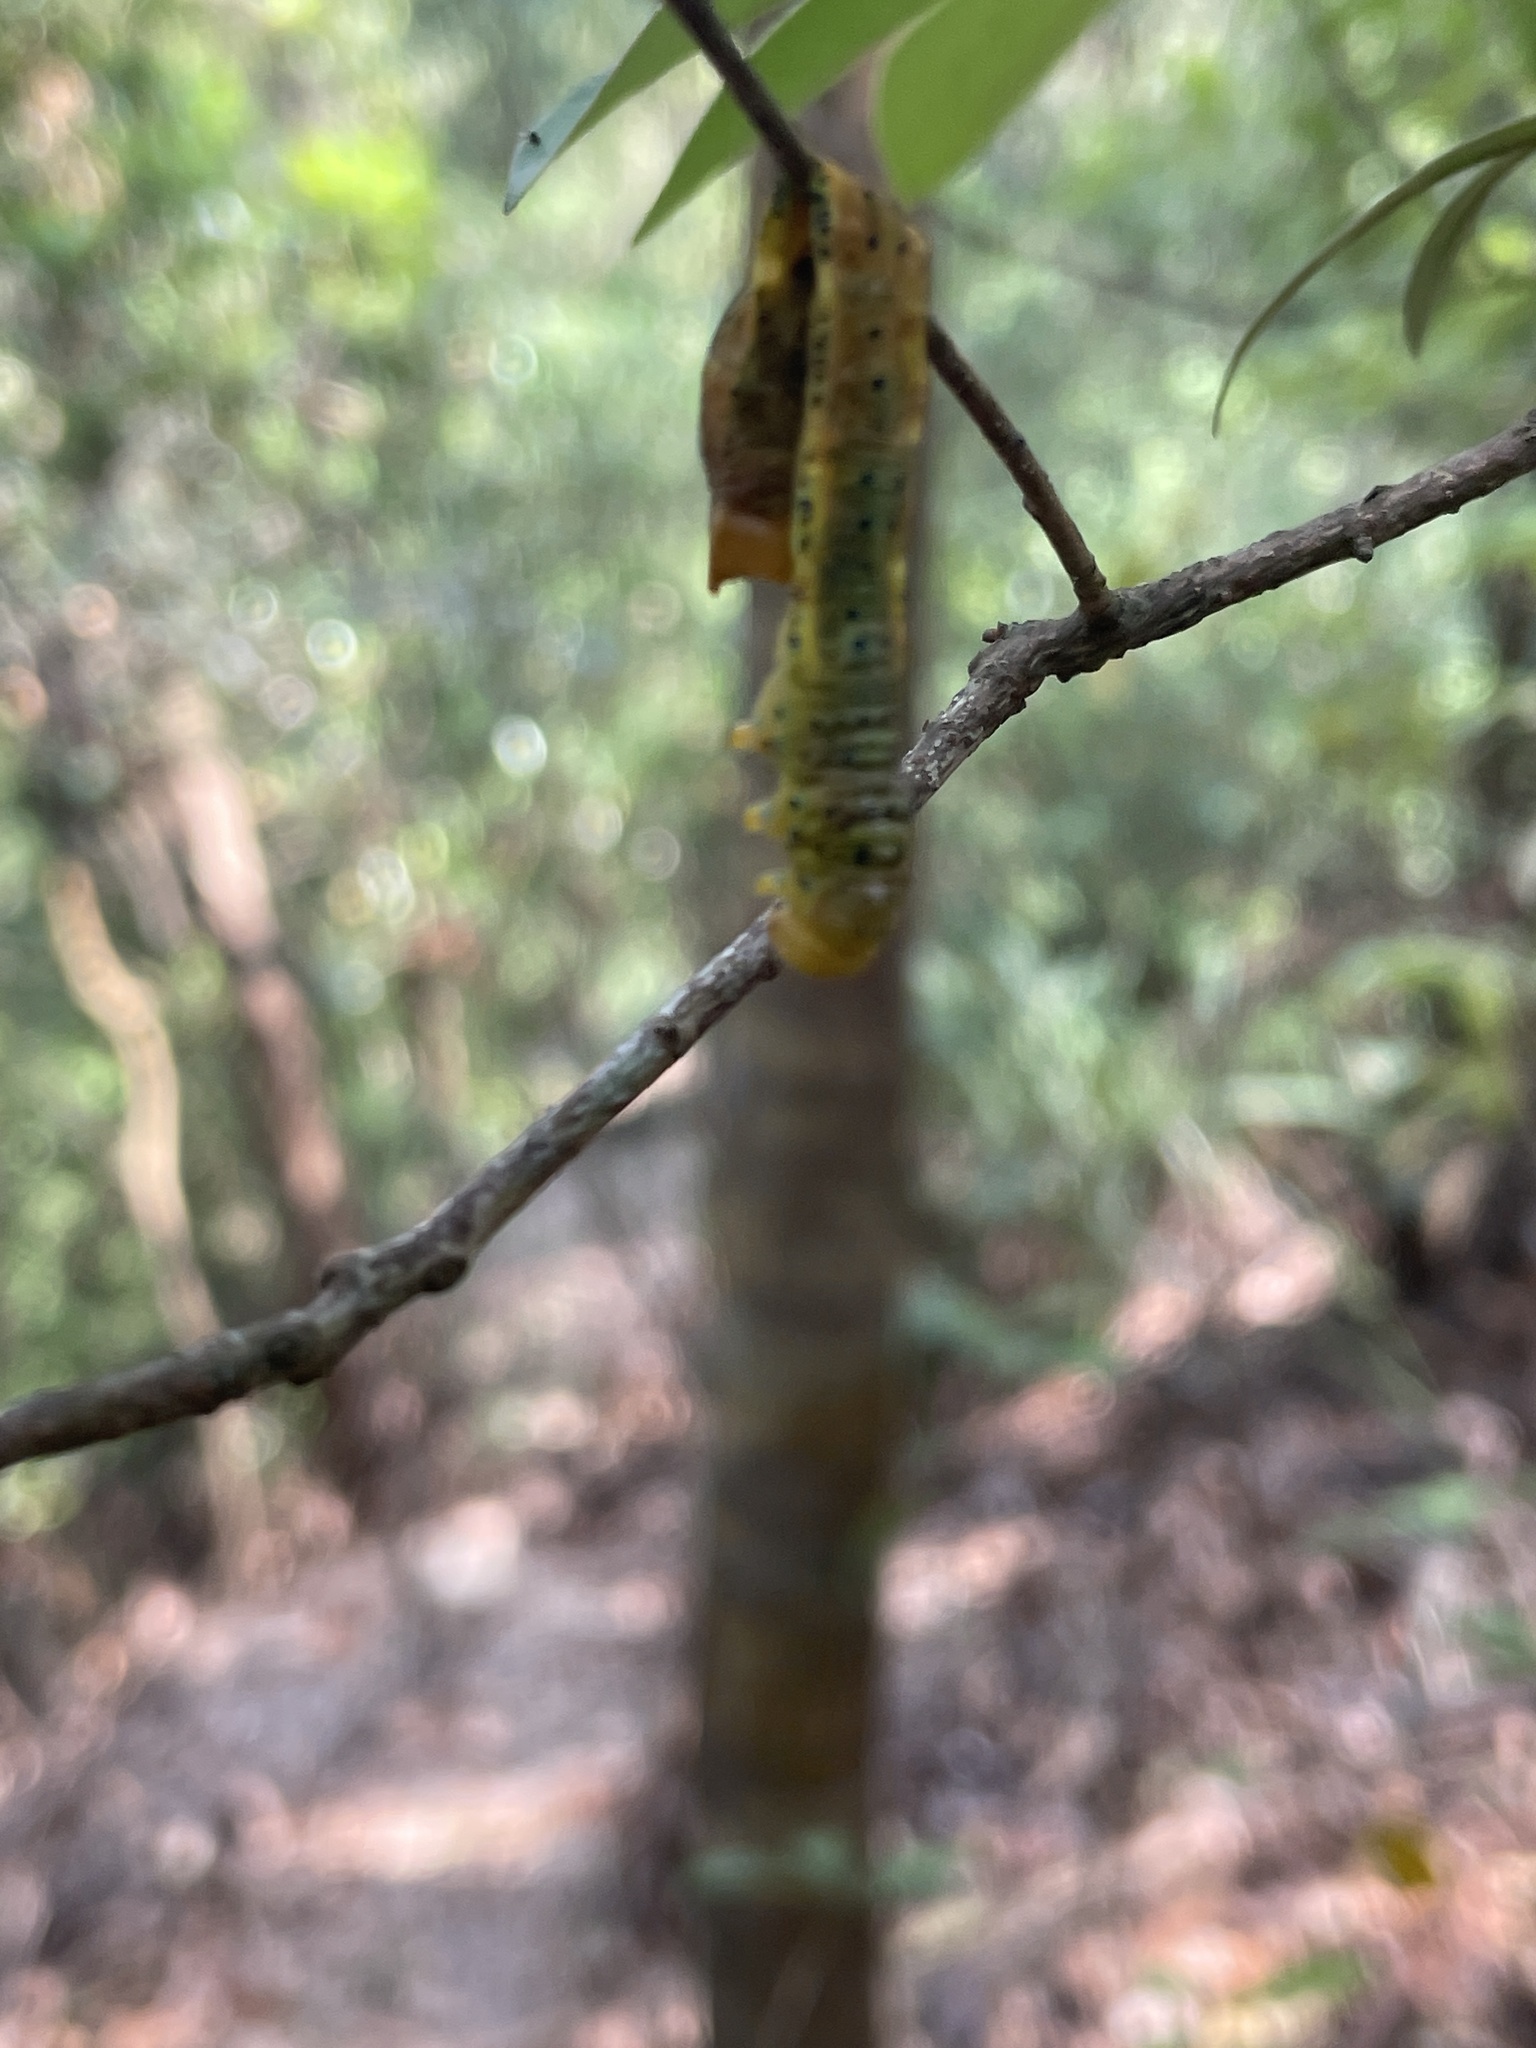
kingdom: Animalia
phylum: Arthropoda
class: Insecta
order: Lepidoptera
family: Geometridae
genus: Dysphania
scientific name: Dysphania militaris
